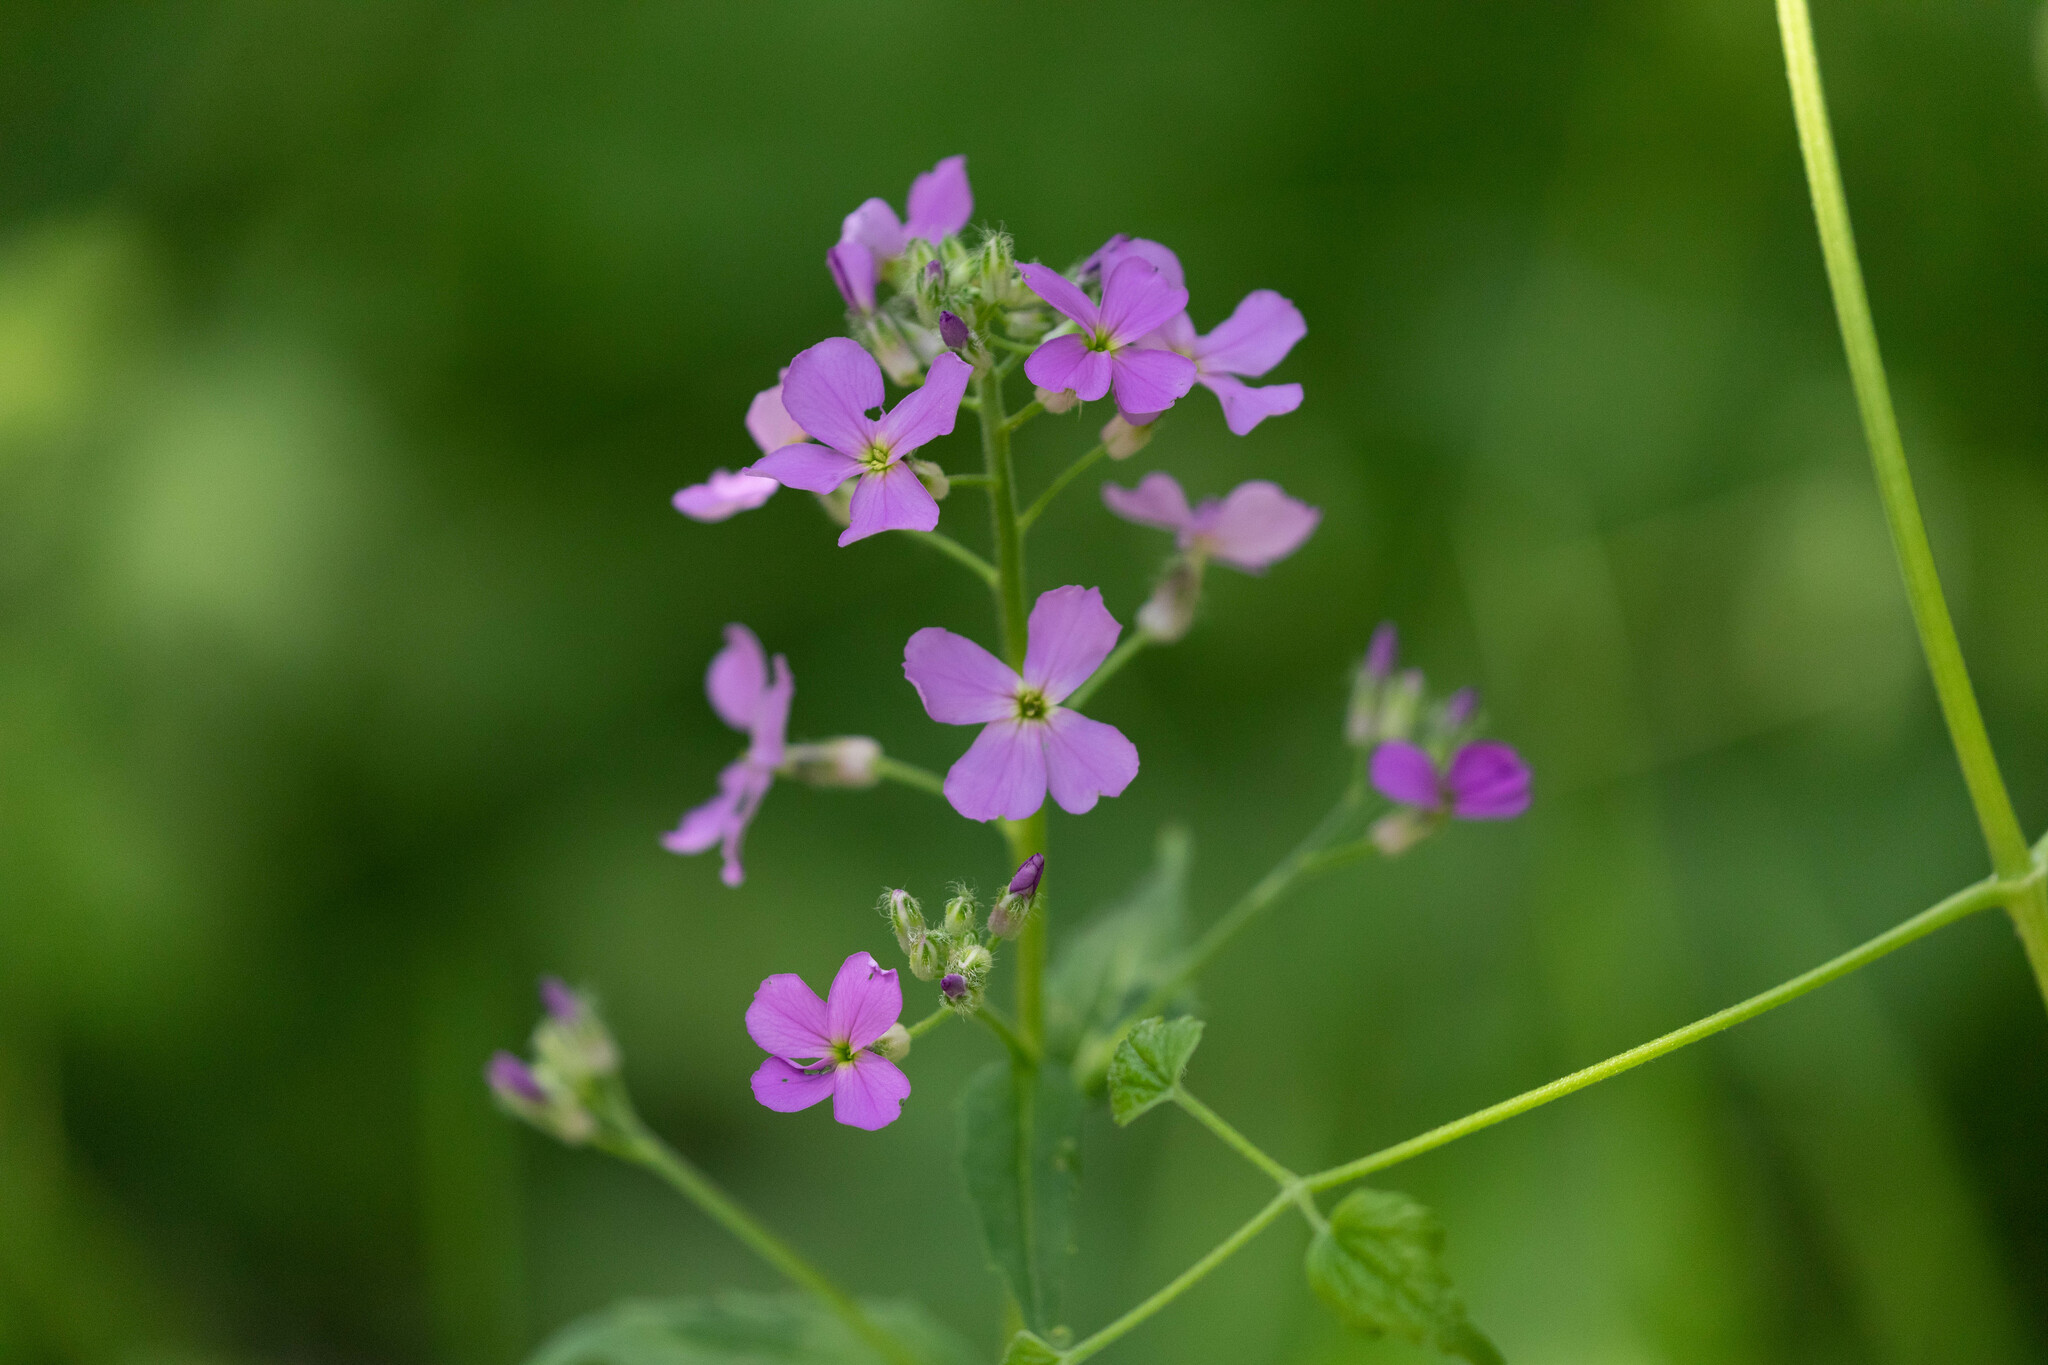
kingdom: Plantae
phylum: Tracheophyta
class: Magnoliopsida
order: Brassicales
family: Brassicaceae
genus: Hesperis
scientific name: Hesperis matronalis
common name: Dame's-violet
